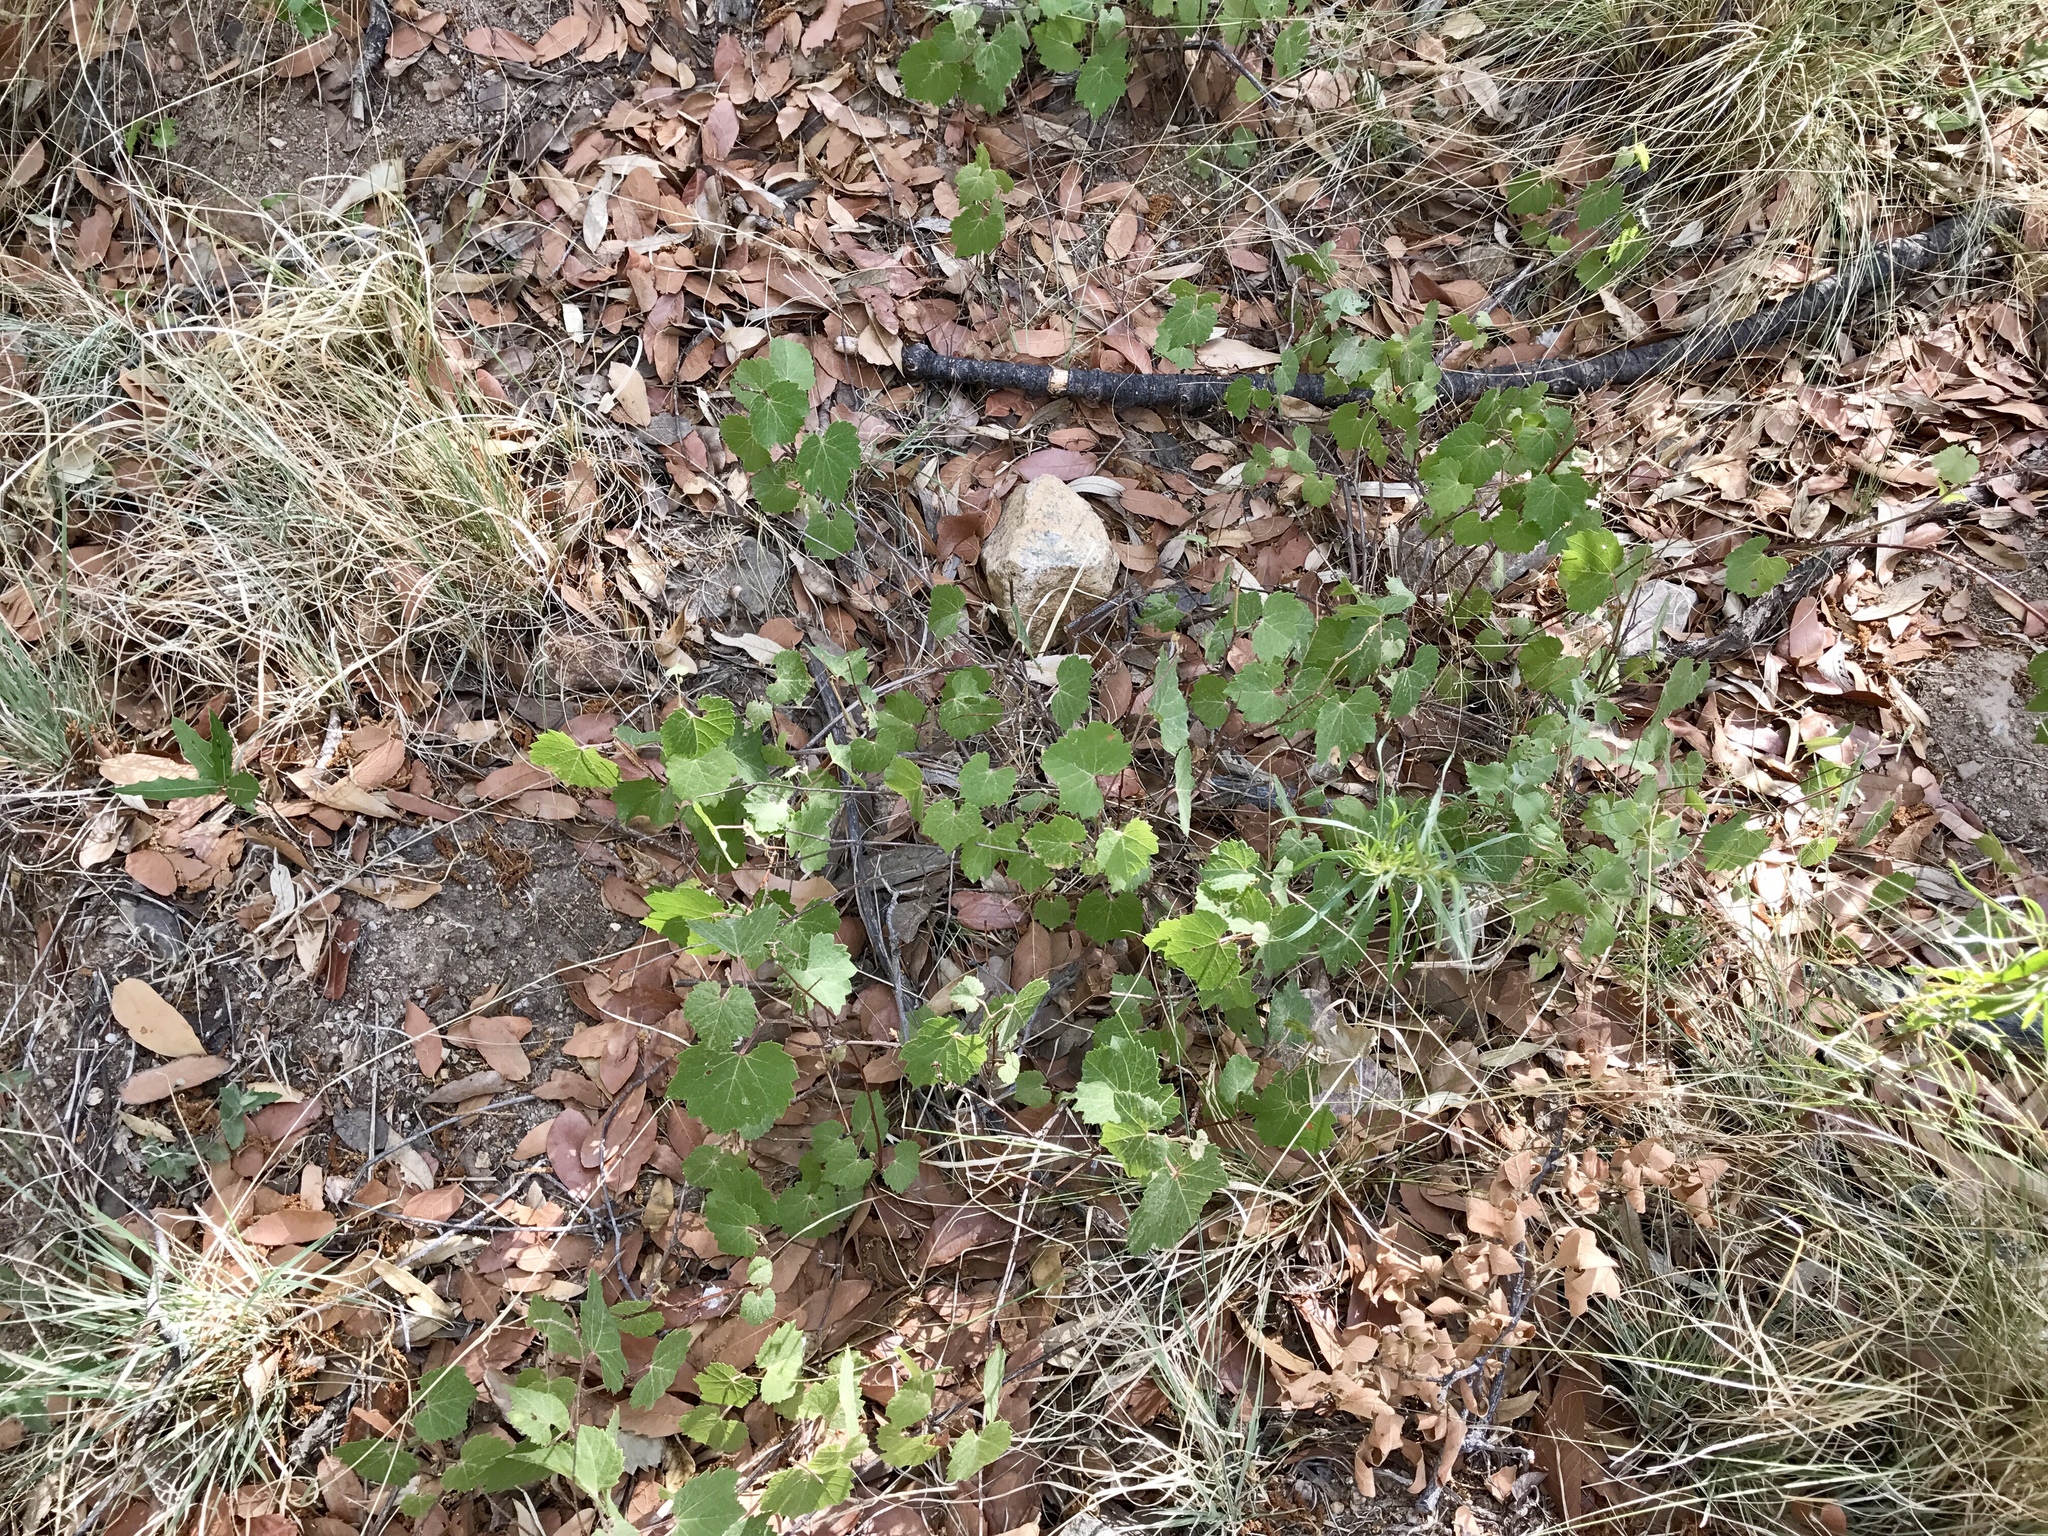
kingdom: Plantae
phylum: Tracheophyta
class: Magnoliopsida
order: Vitales
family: Vitaceae
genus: Vitis
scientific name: Vitis arizonica
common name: Canyon grape
